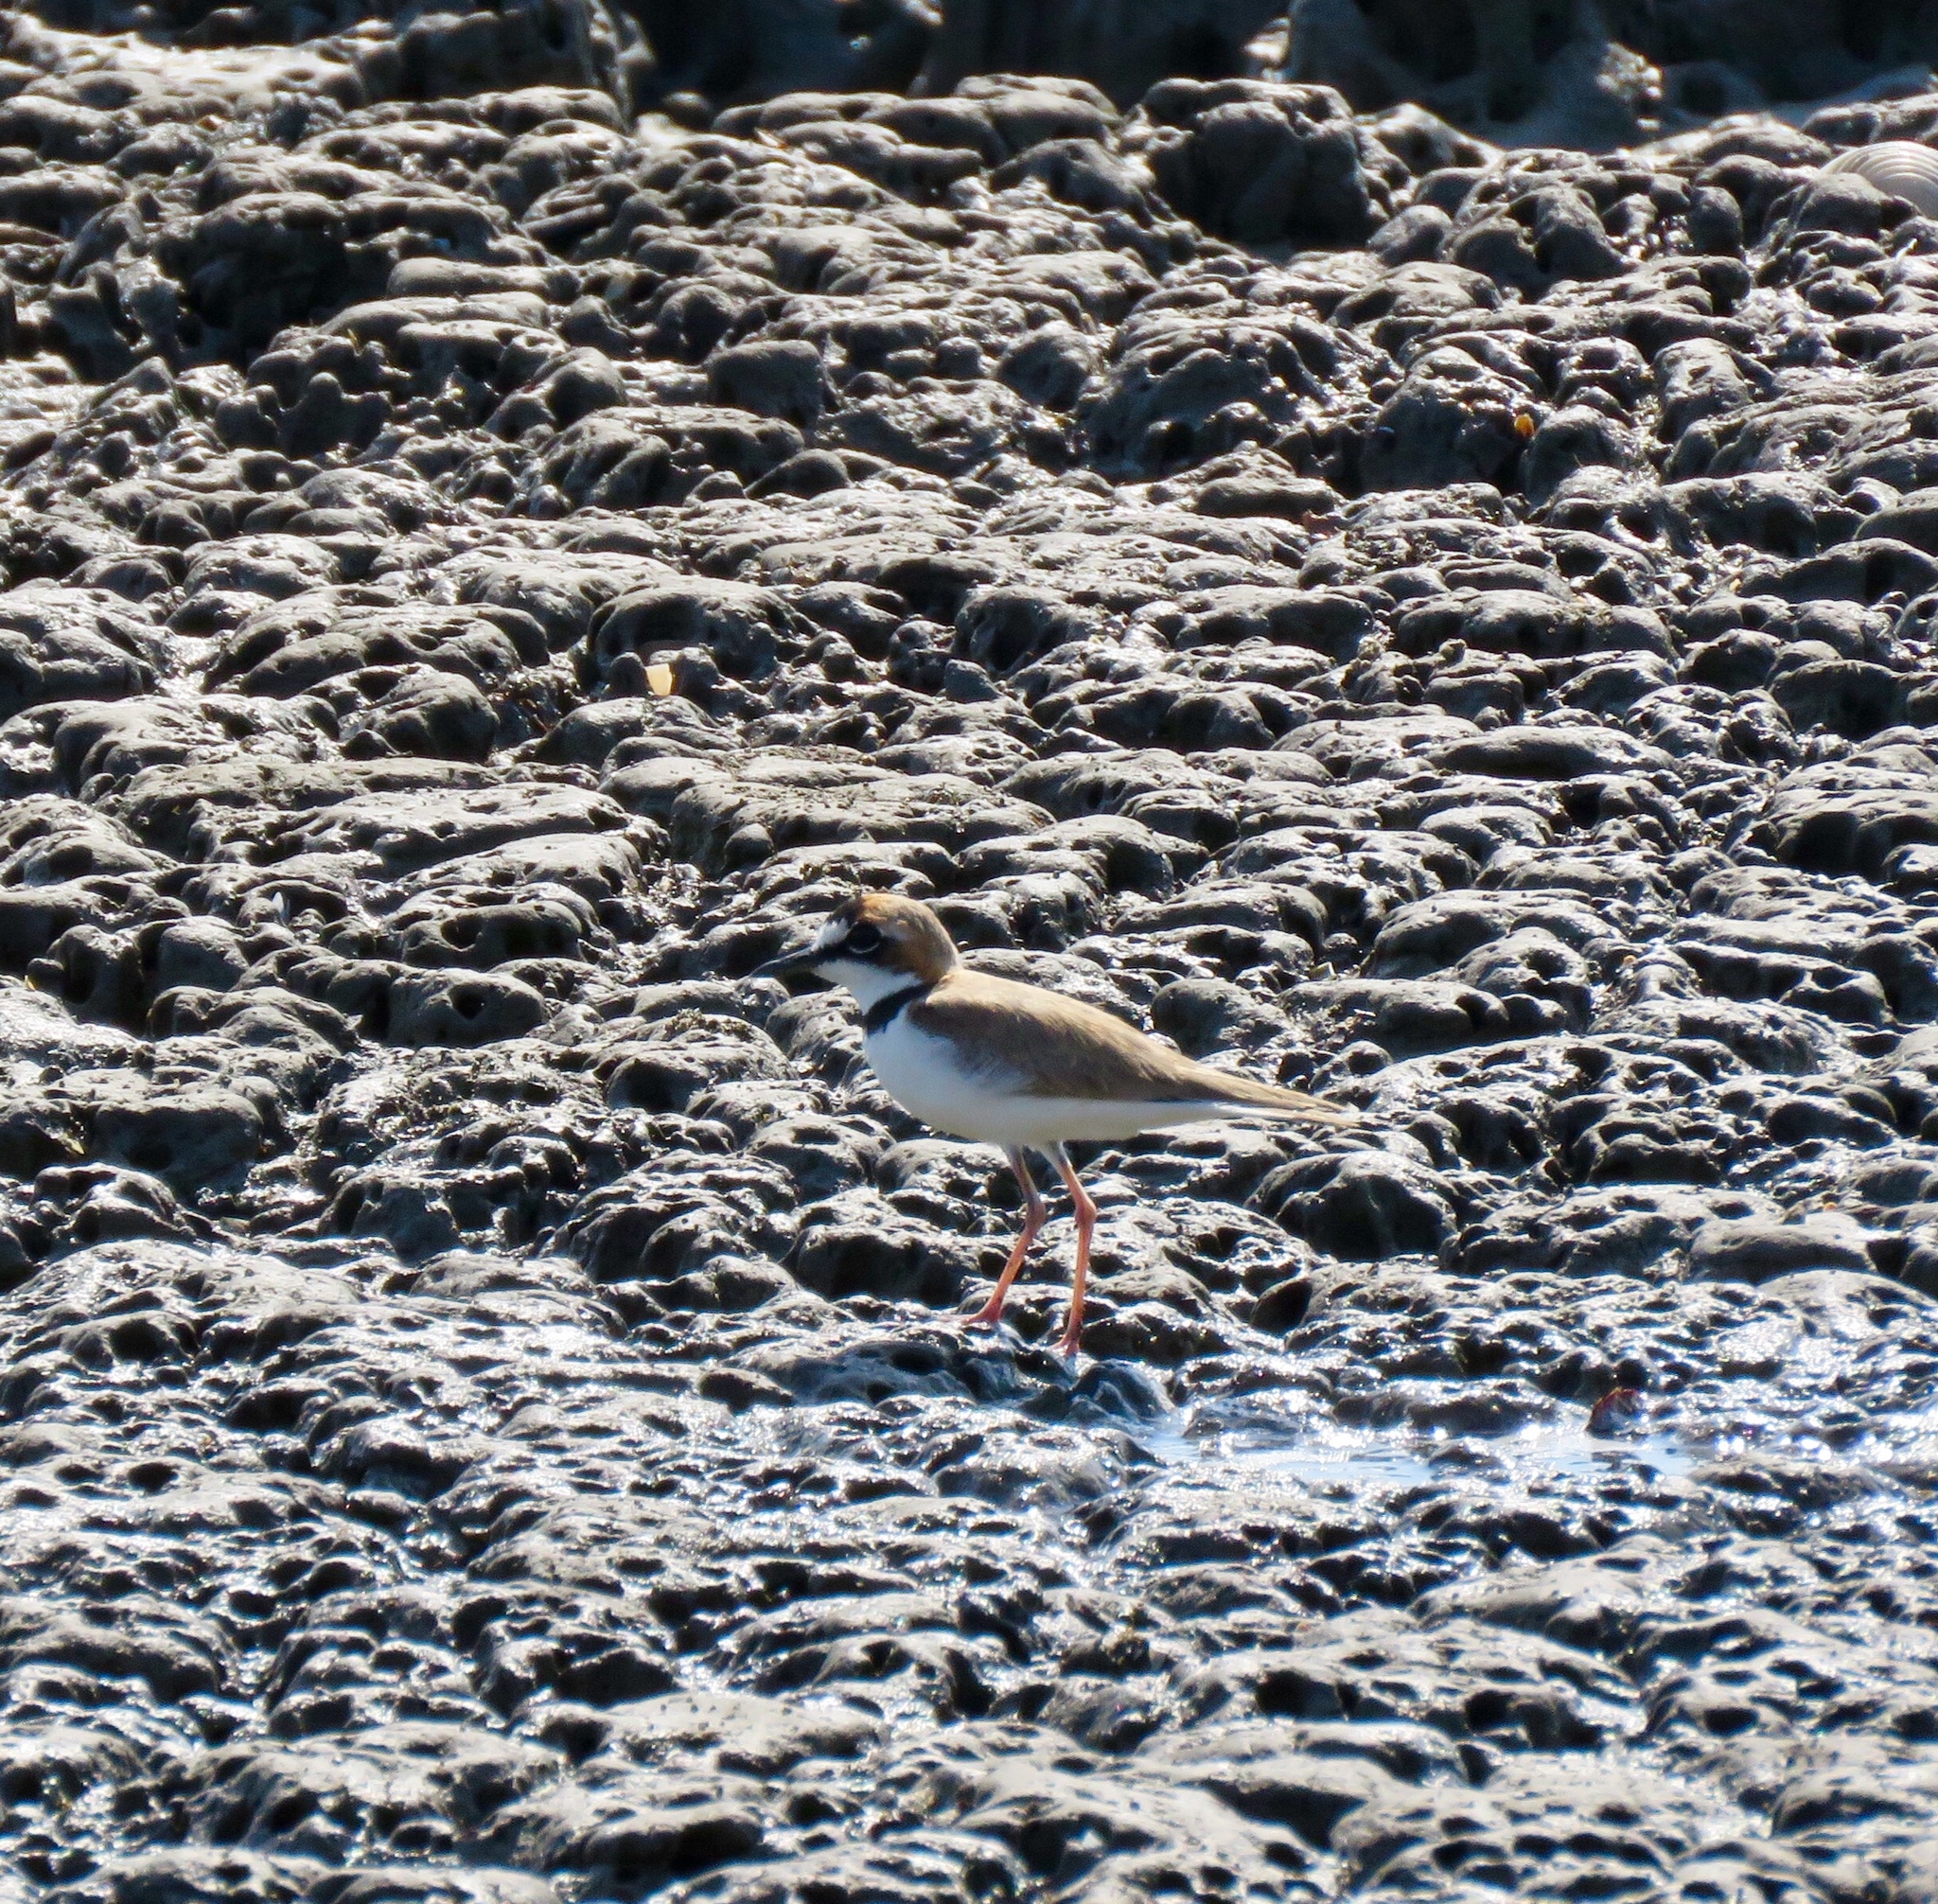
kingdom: Animalia
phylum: Chordata
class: Aves
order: Charadriiformes
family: Charadriidae
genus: Anarhynchus
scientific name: Anarhynchus
